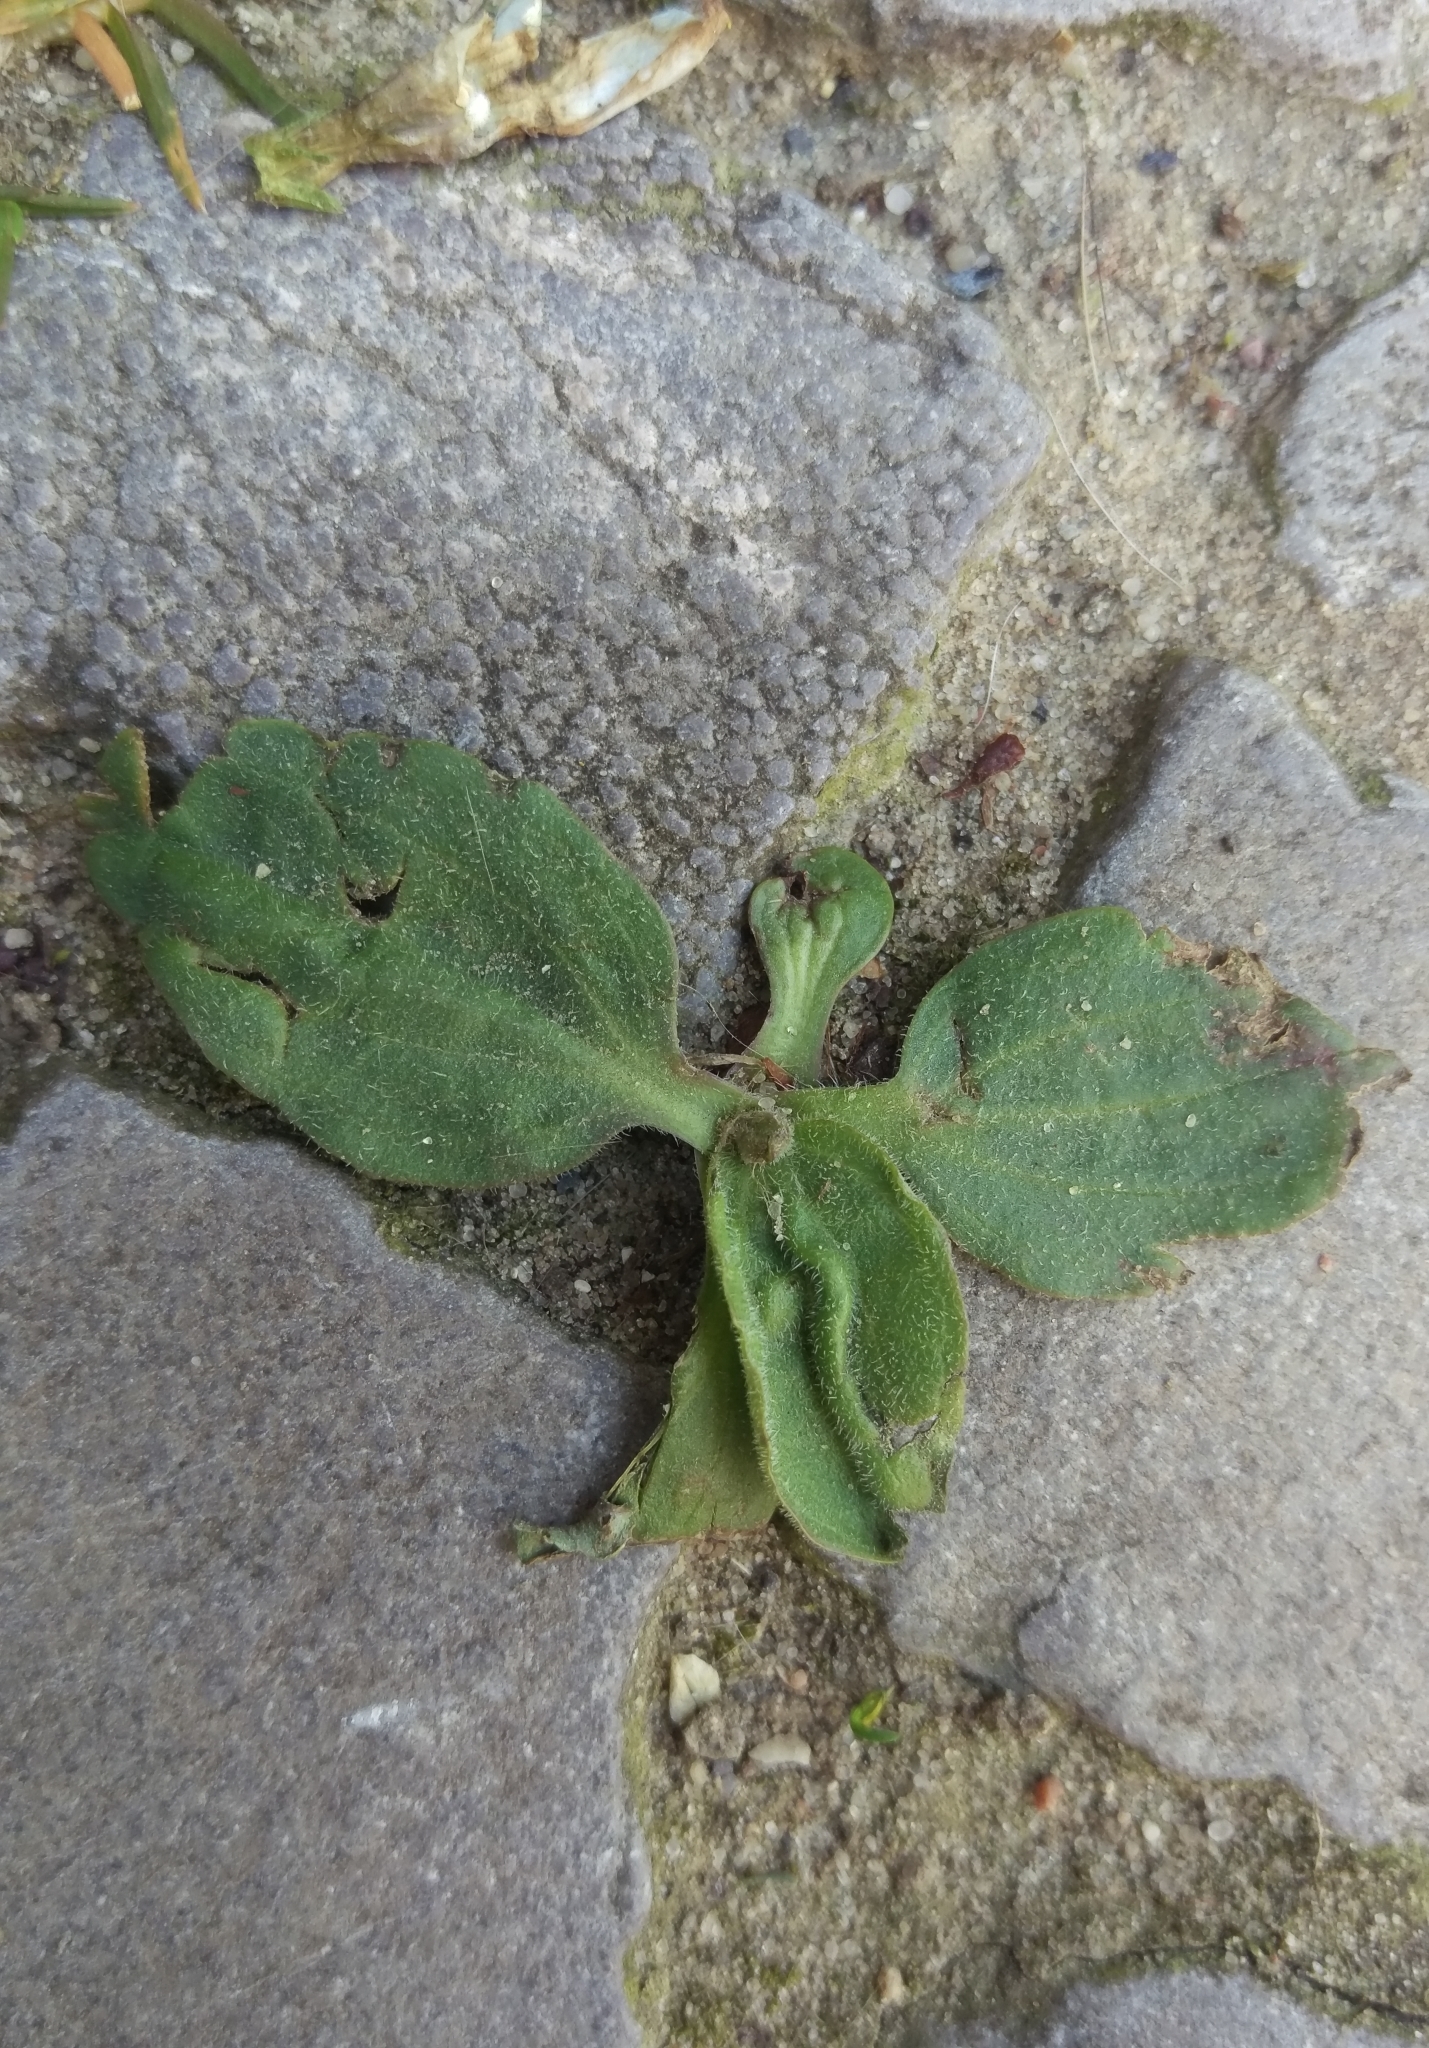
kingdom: Plantae
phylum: Tracheophyta
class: Magnoliopsida
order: Lamiales
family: Plantaginaceae
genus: Plantago
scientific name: Plantago major
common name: Common plantain
